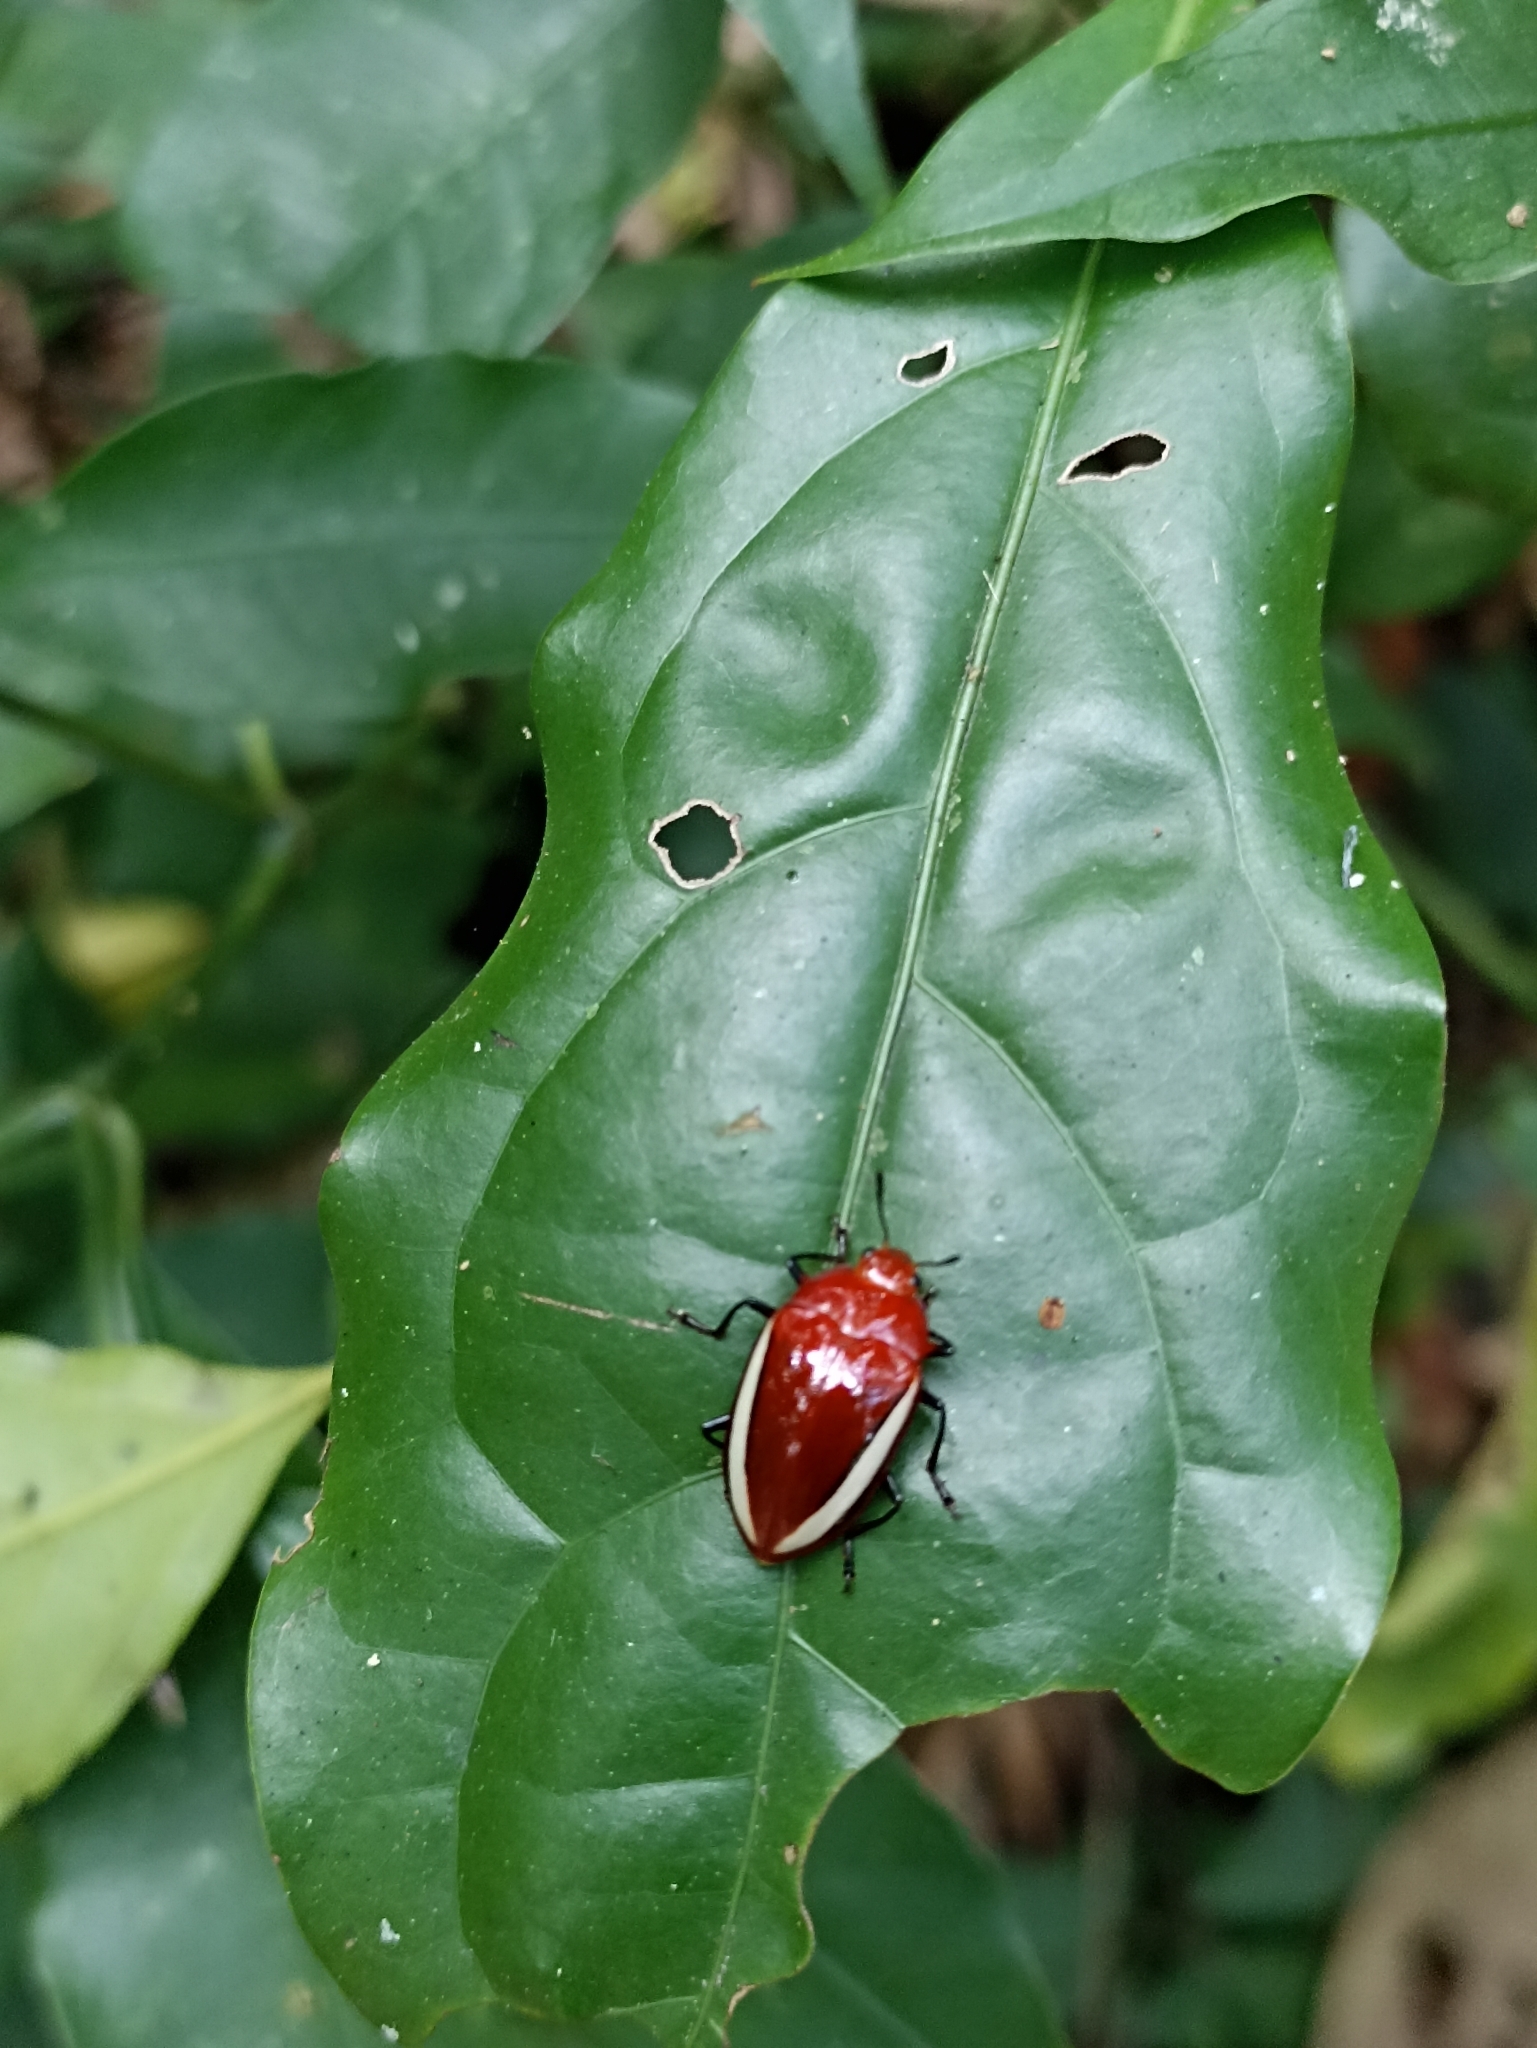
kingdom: Animalia
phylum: Arthropoda
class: Insecta
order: Coleoptera
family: Erotylidae
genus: Iphiclus
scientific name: Iphiclus
